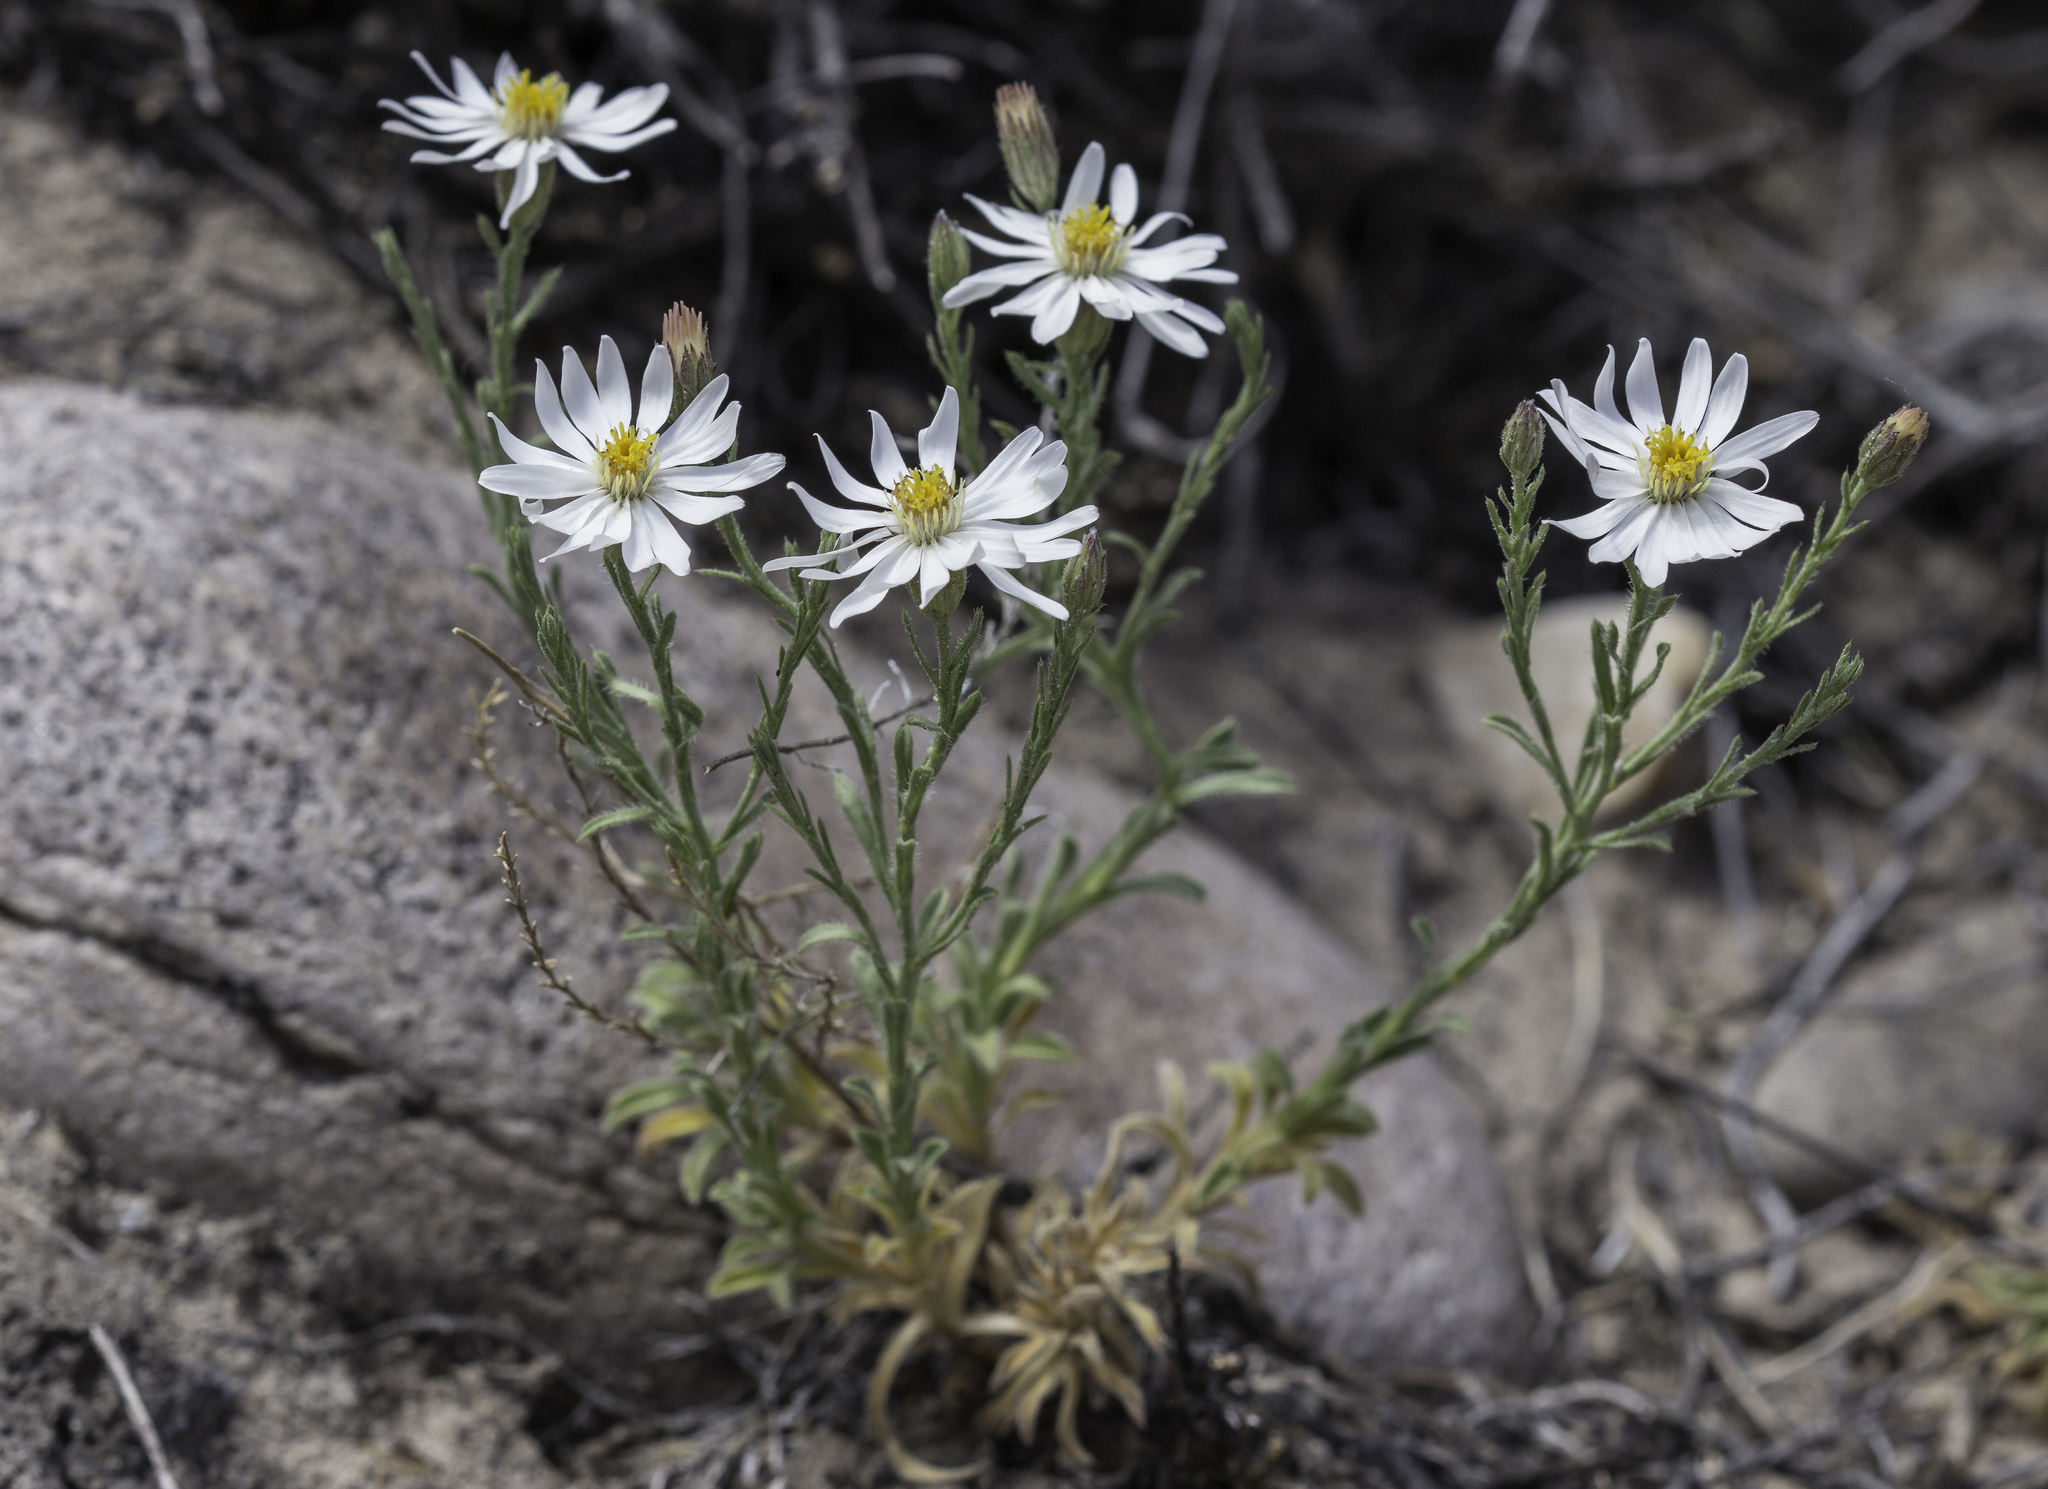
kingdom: Plantae
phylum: Tracheophyta
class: Magnoliopsida
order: Asterales
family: Asteraceae
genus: Chaetopappa
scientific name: Chaetopappa ericoides
